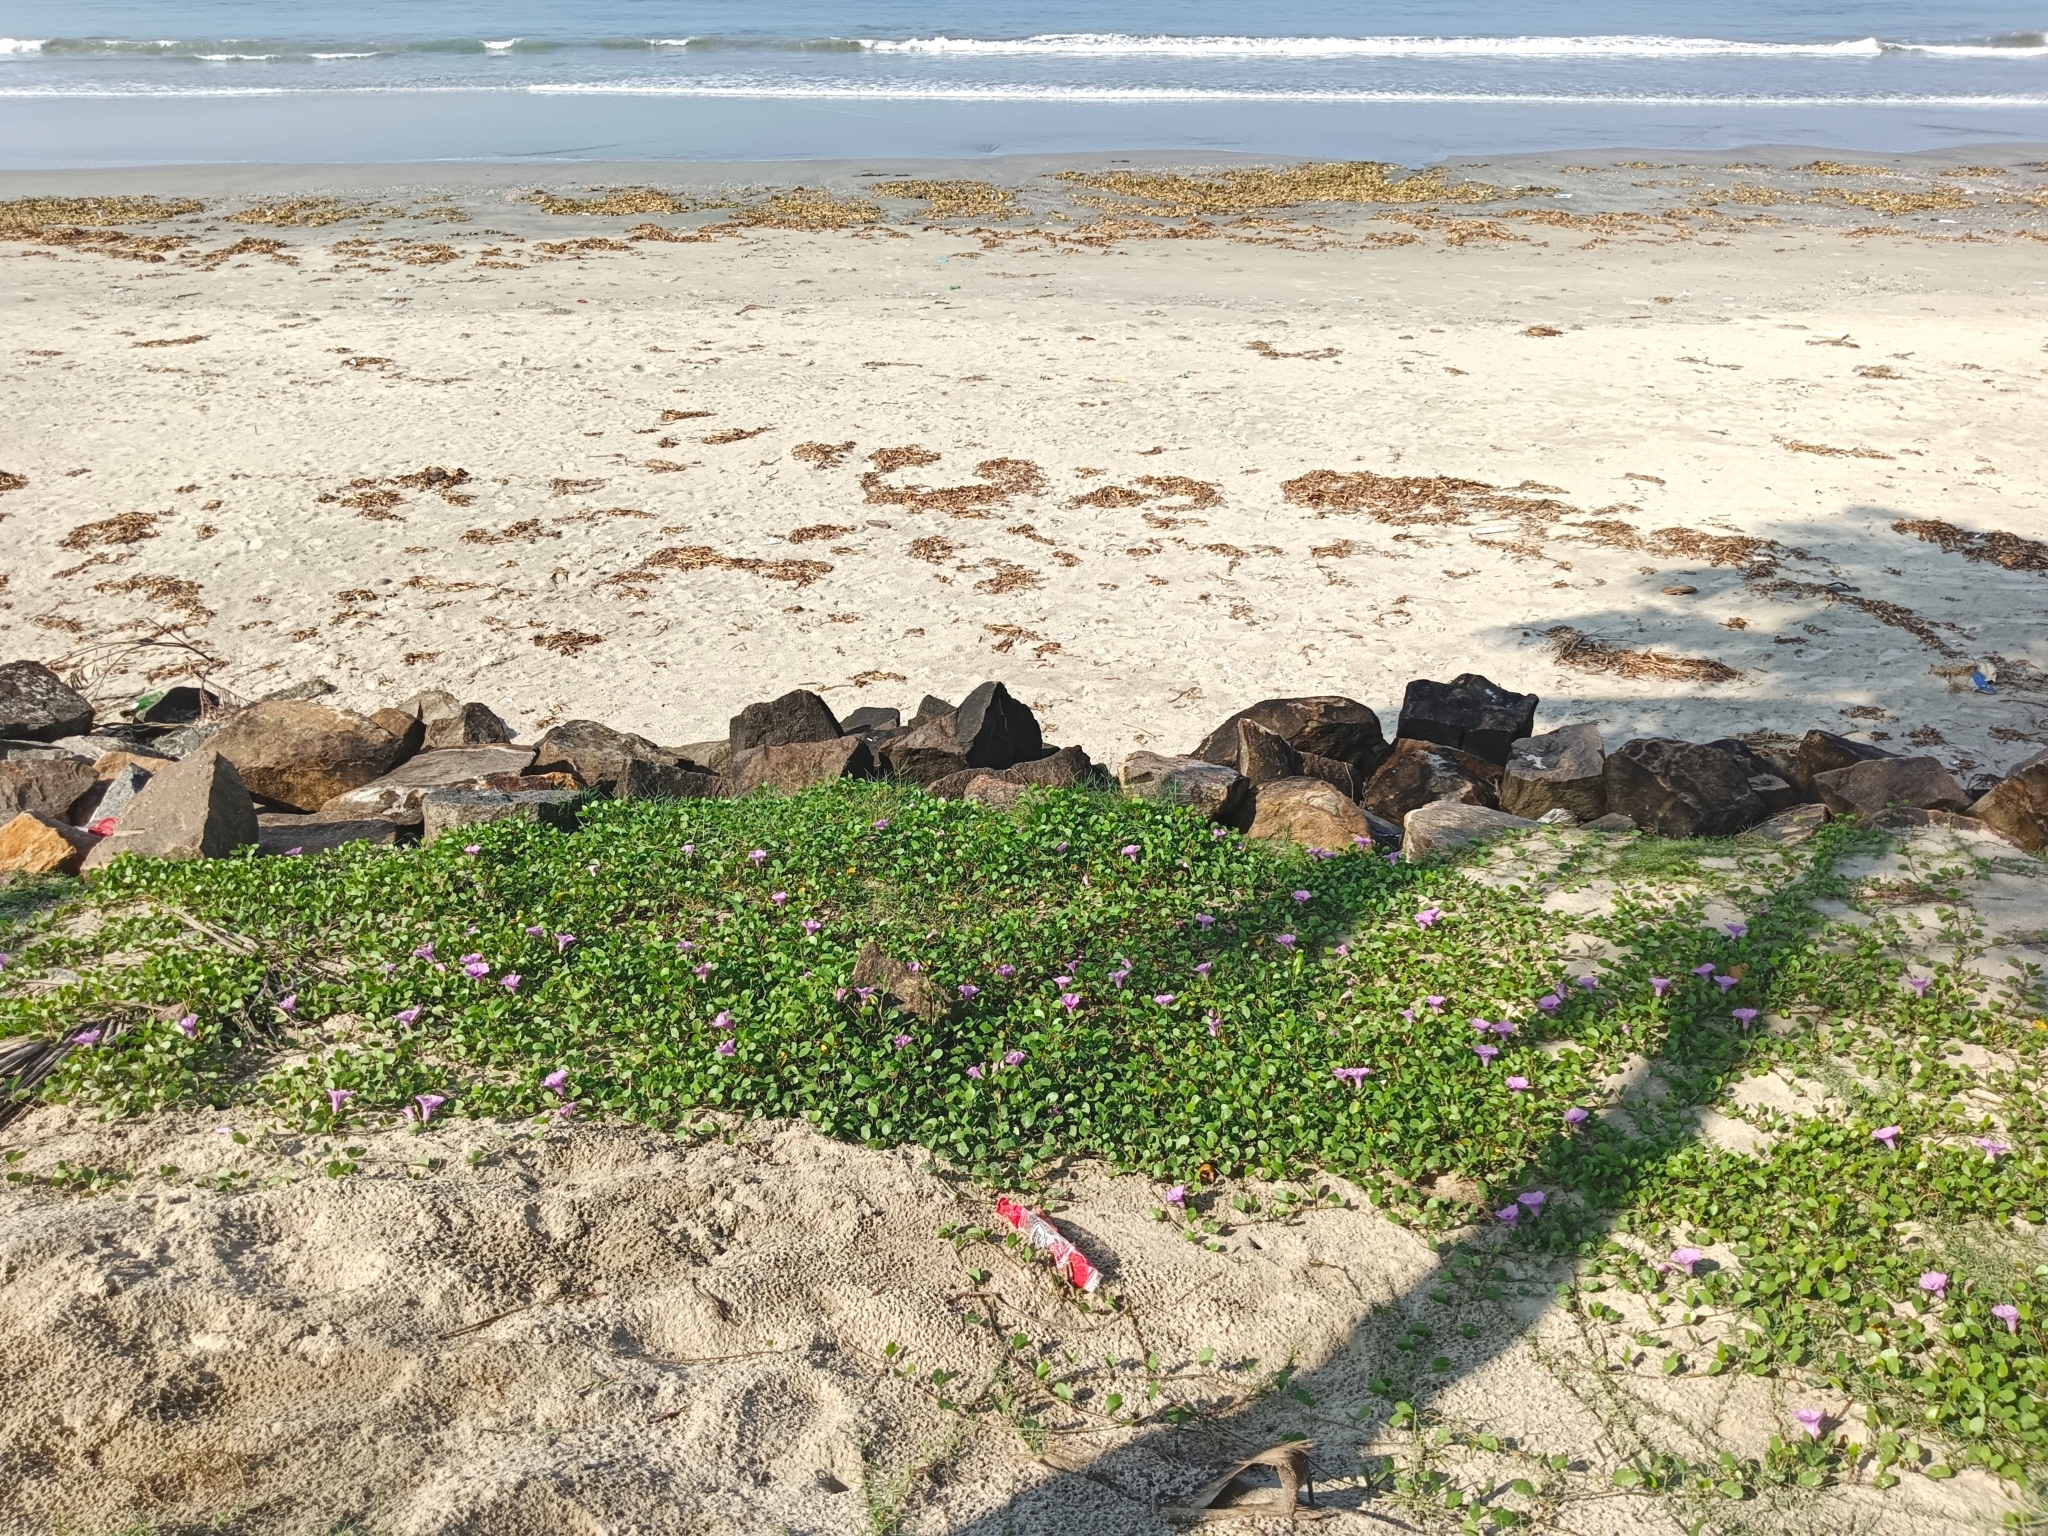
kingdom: Plantae
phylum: Tracheophyta
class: Magnoliopsida
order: Solanales
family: Convolvulaceae
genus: Ipomoea
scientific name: Ipomoea pes-caprae
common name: Beach morning glory
